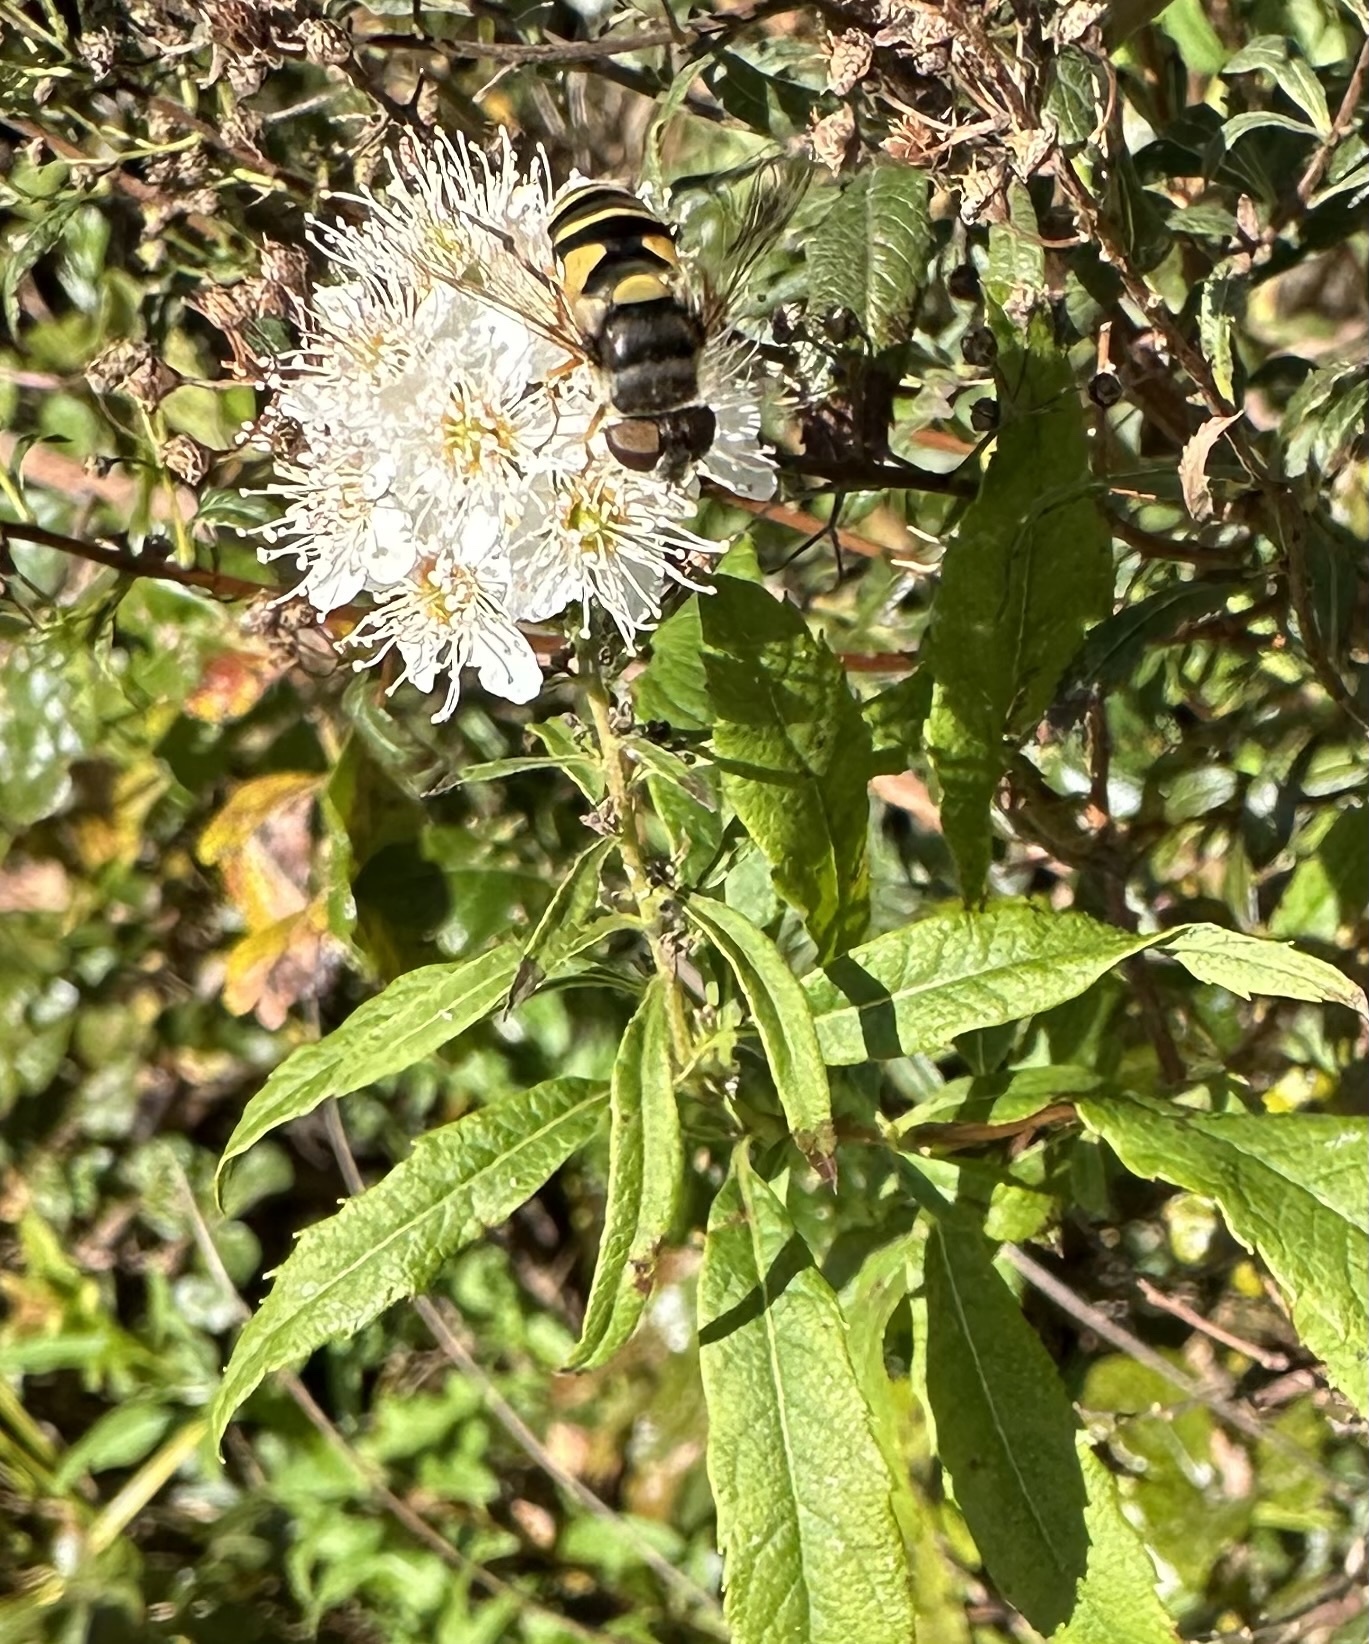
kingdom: Animalia
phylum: Arthropoda
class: Insecta
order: Diptera
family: Syrphidae
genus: Eristalis
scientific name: Eristalis transversa
